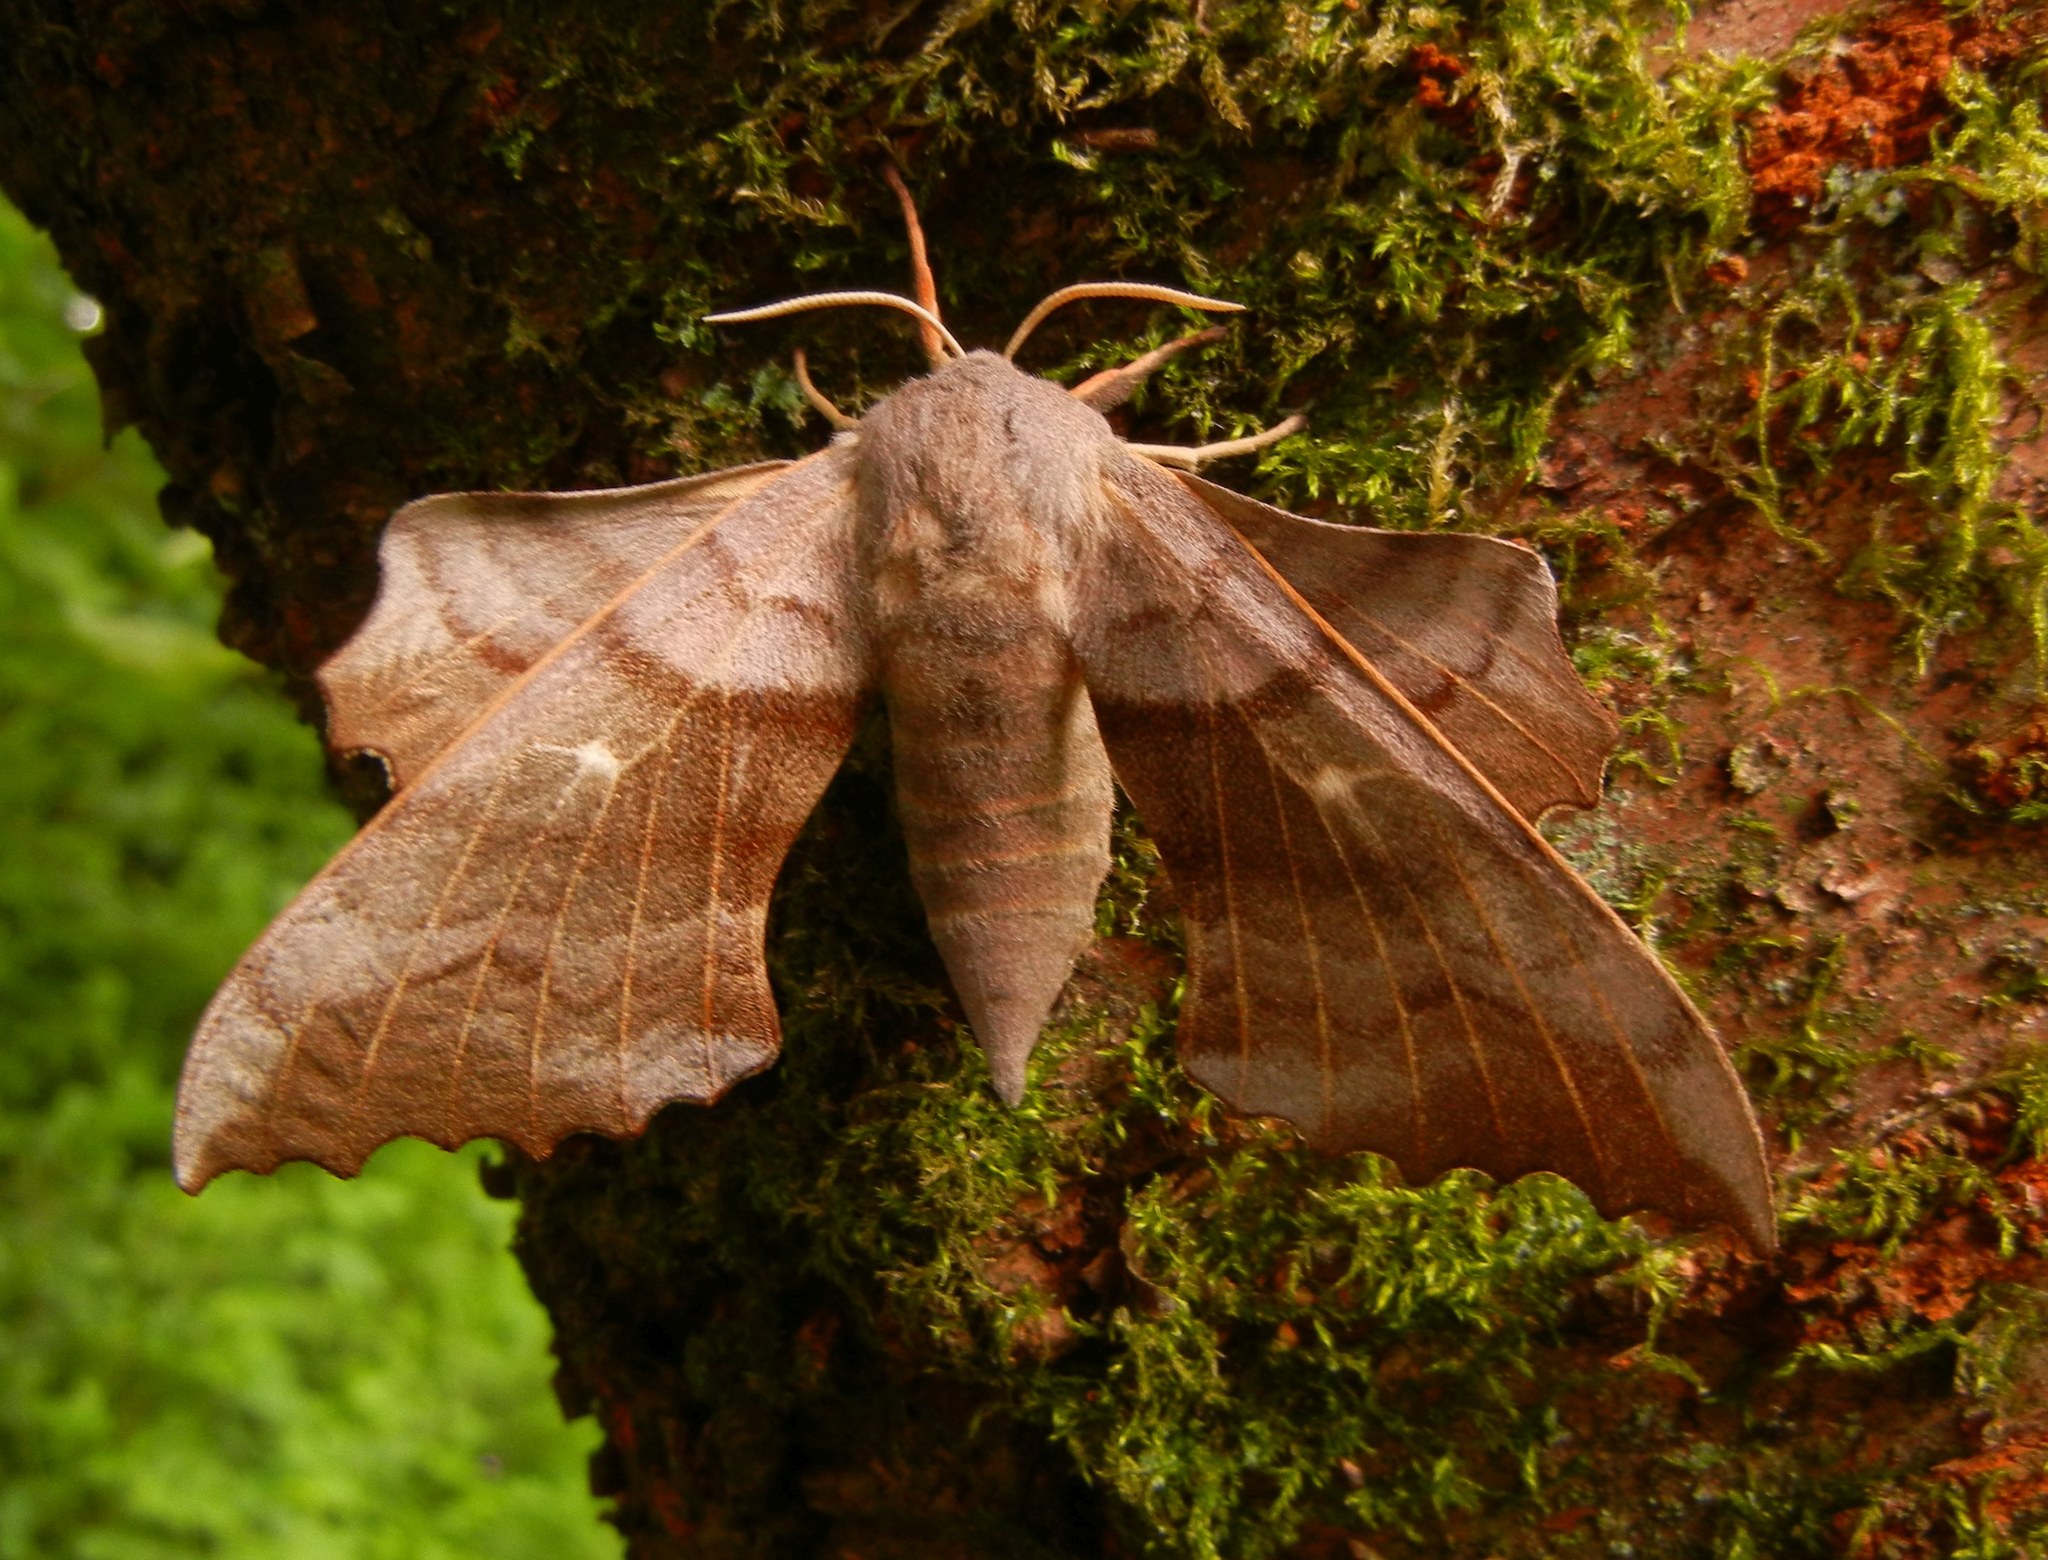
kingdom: Animalia
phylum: Arthropoda
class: Insecta
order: Lepidoptera
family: Sphingidae
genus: Laothoe
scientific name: Laothoe populi
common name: Poplar hawk-moth
